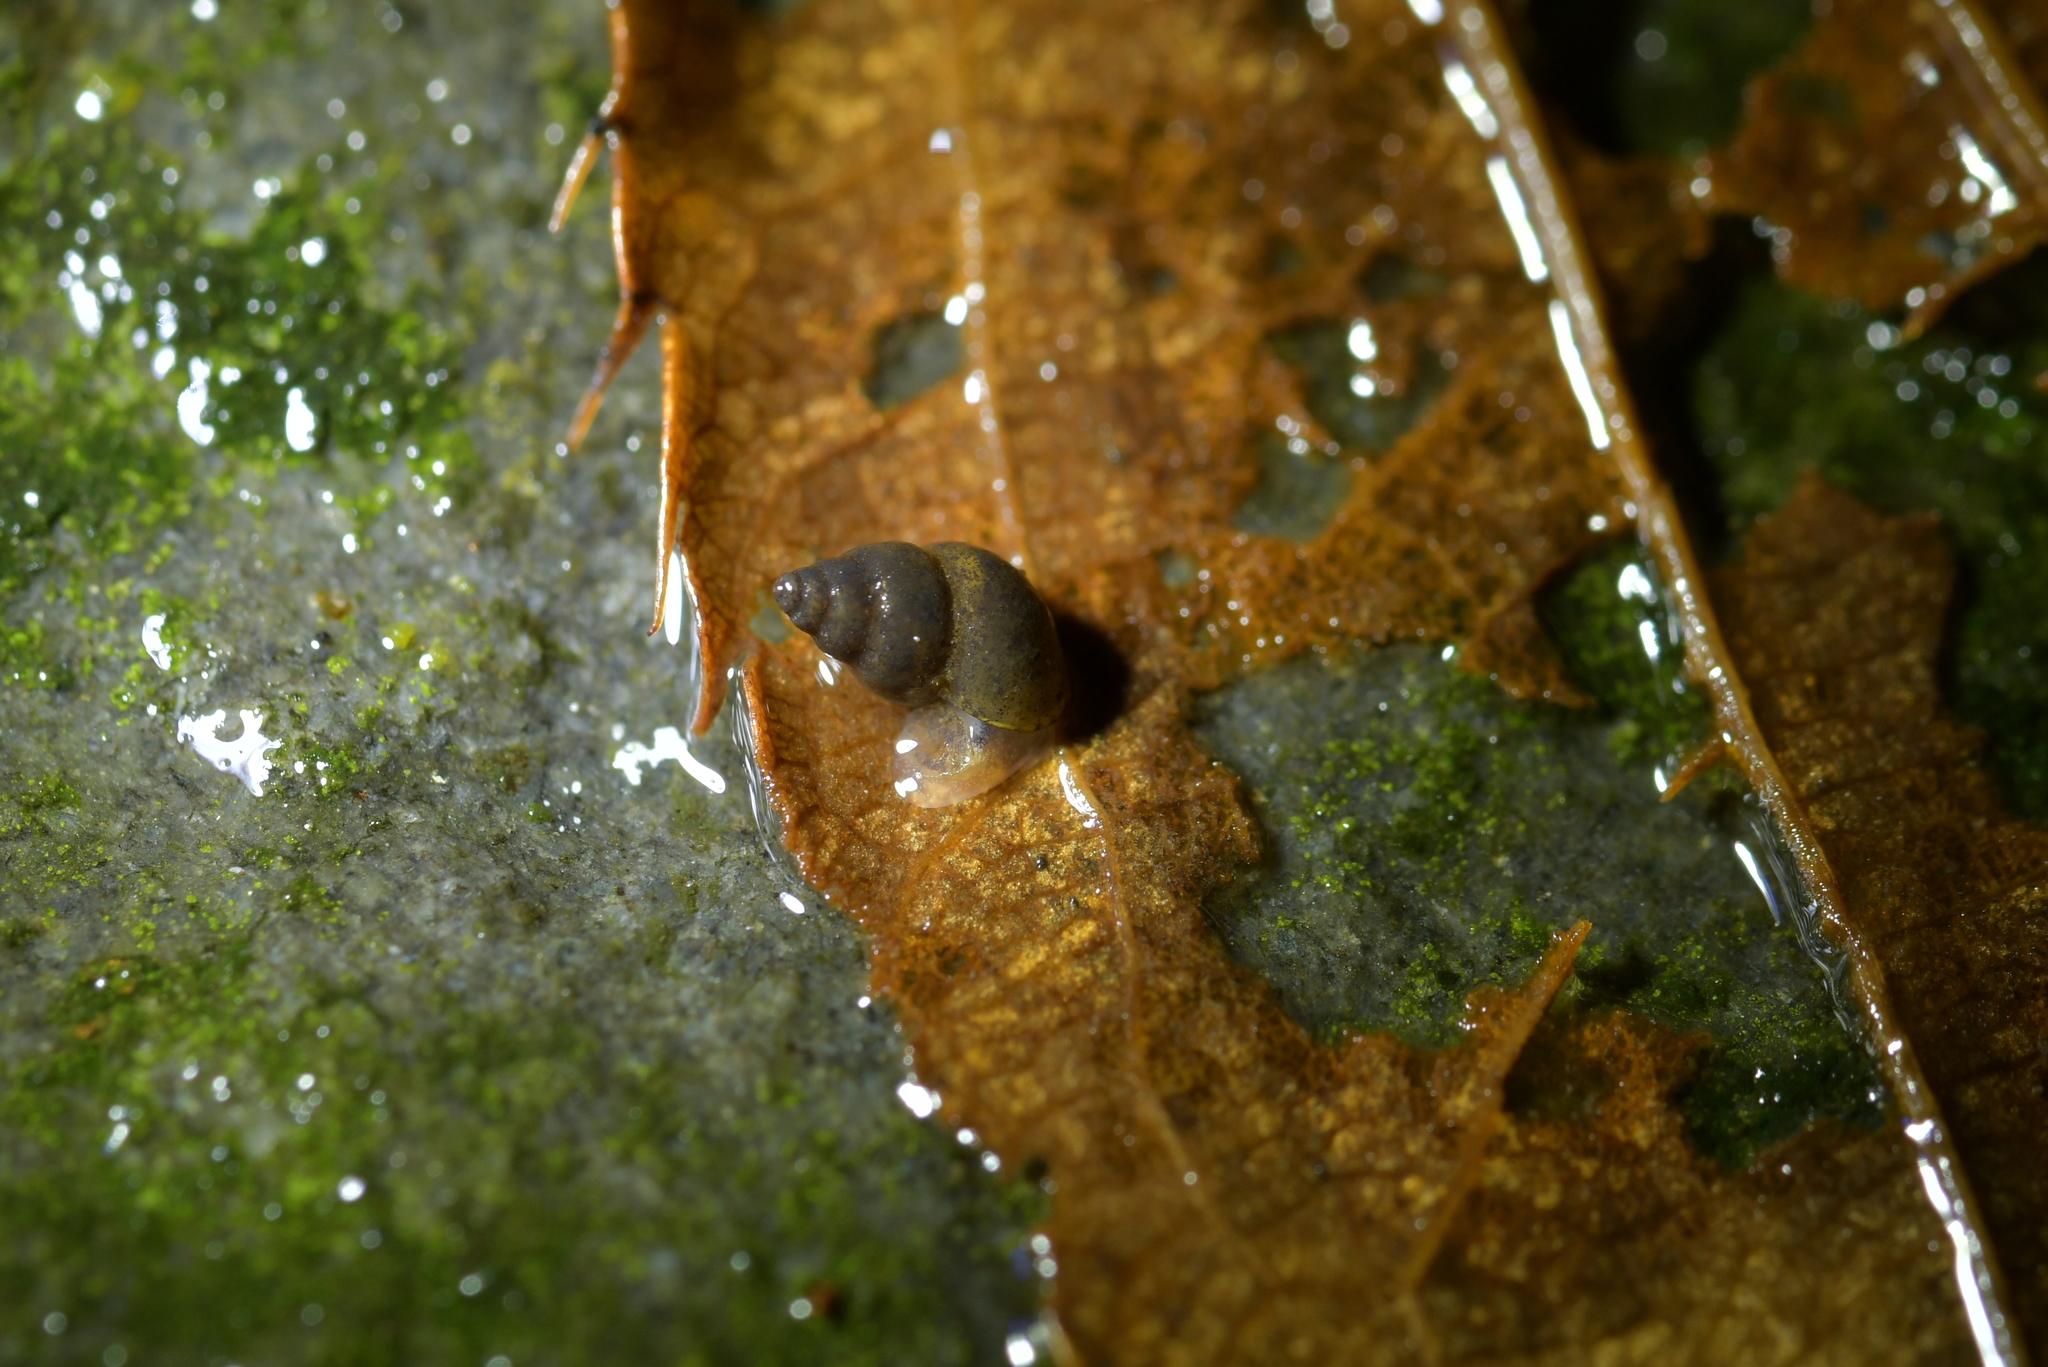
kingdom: Animalia
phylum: Mollusca
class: Gastropoda
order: Littorinimorpha
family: Tateidae
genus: Potamopyrgus
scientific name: Potamopyrgus antipodarum
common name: Jenkins' spire snail
